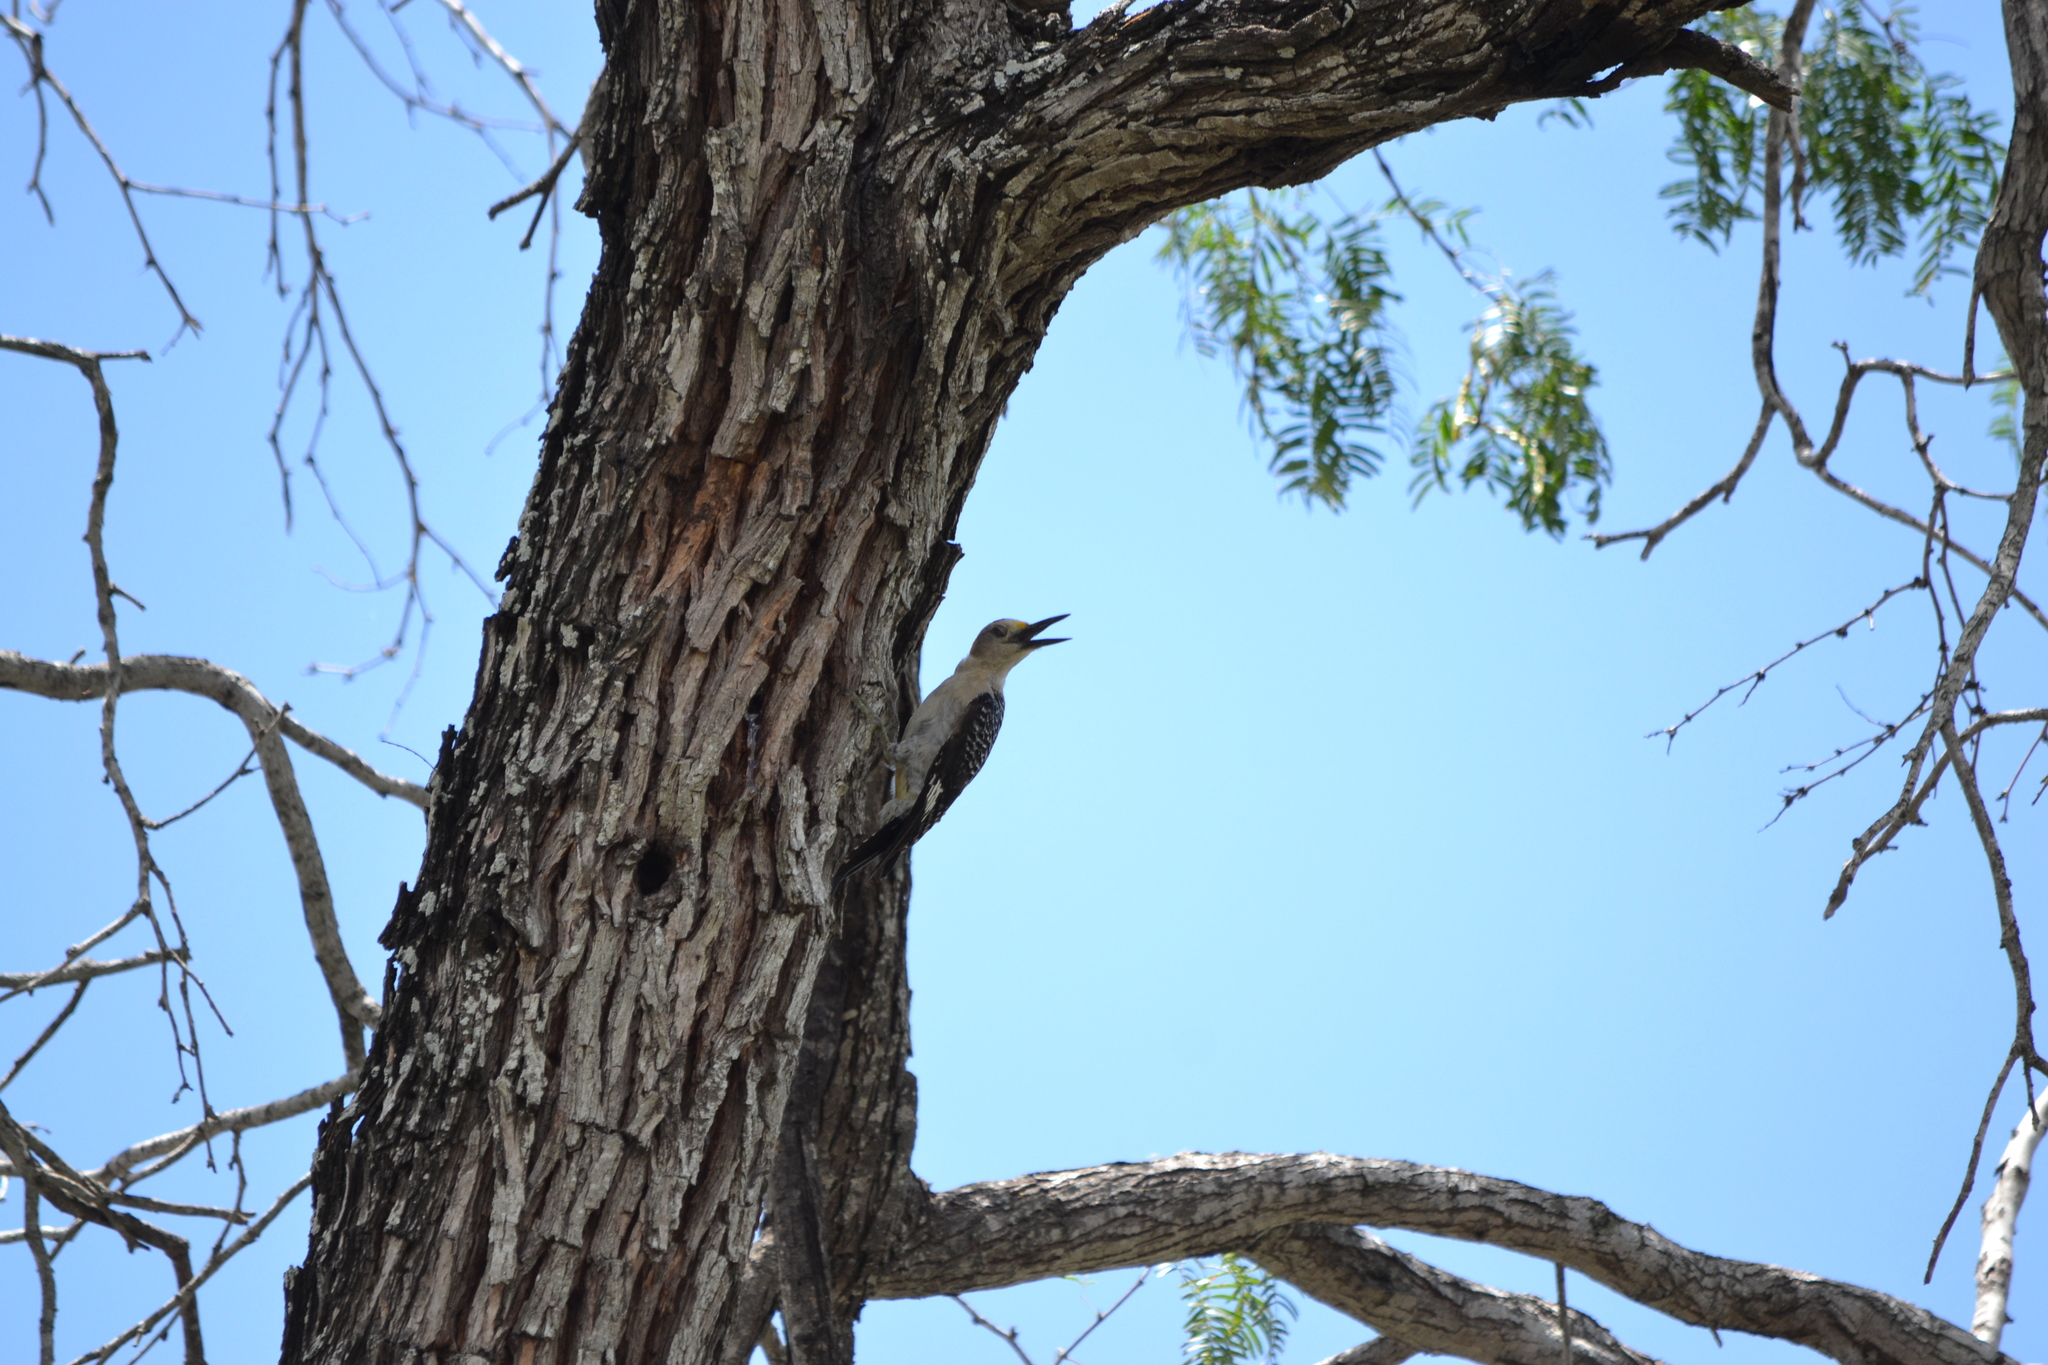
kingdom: Animalia
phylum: Chordata
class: Aves
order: Piciformes
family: Picidae
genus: Melanerpes
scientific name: Melanerpes aurifrons
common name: Golden-fronted woodpecker
